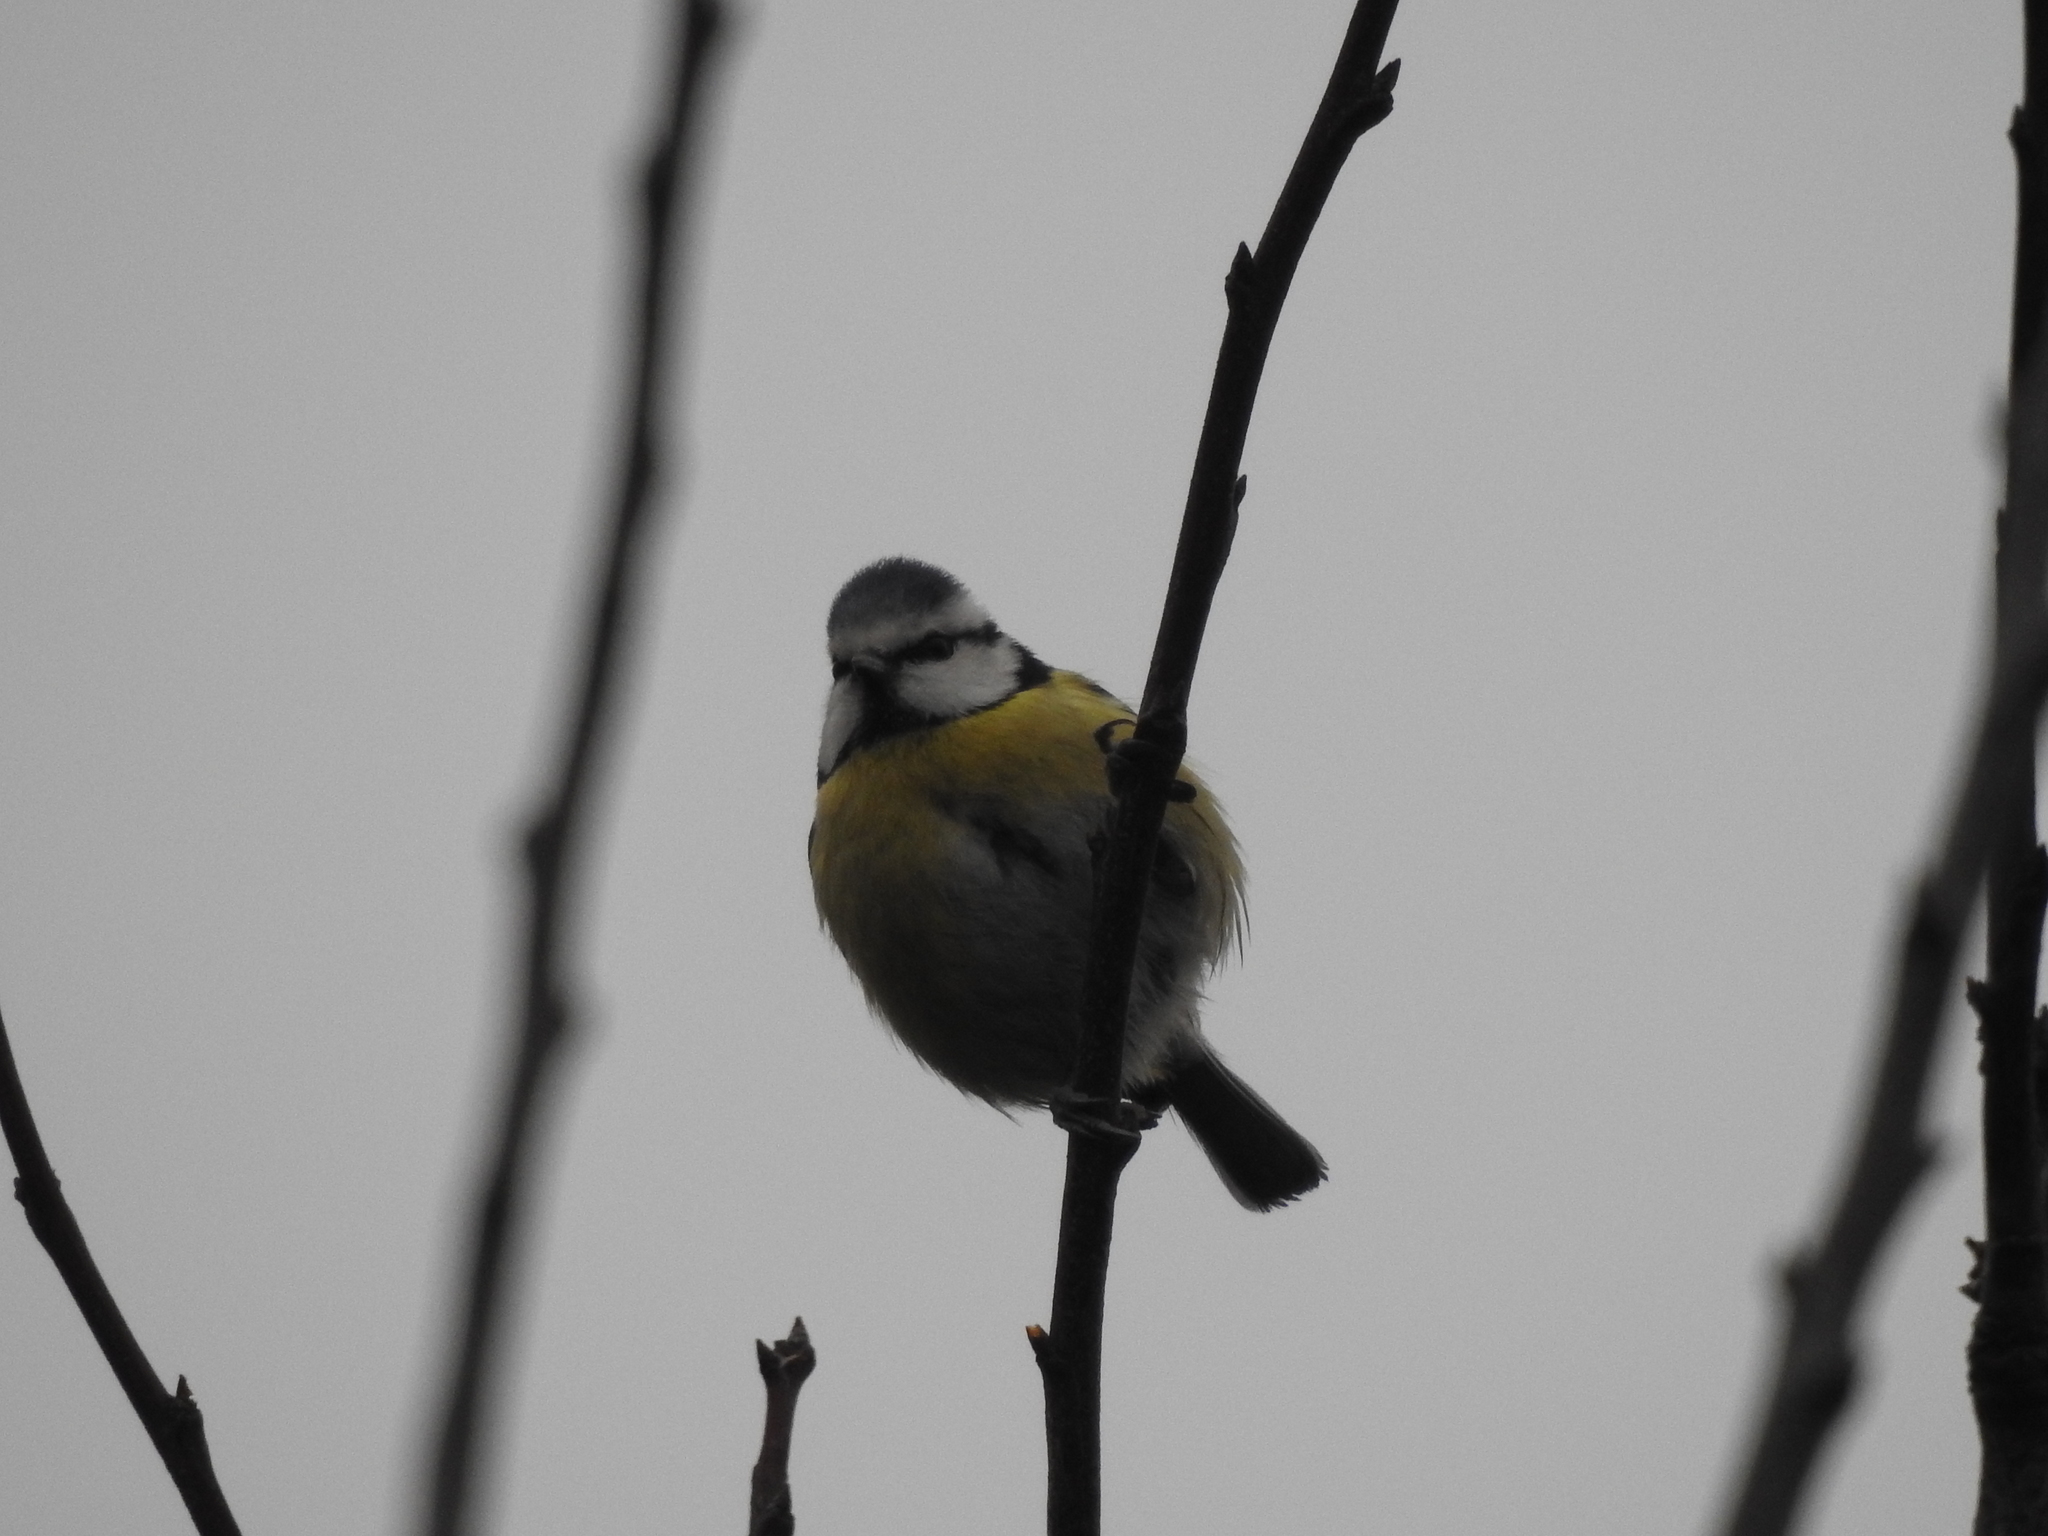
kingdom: Animalia
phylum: Chordata
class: Aves
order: Passeriformes
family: Paridae
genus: Cyanistes
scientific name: Cyanistes caeruleus
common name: Eurasian blue tit
